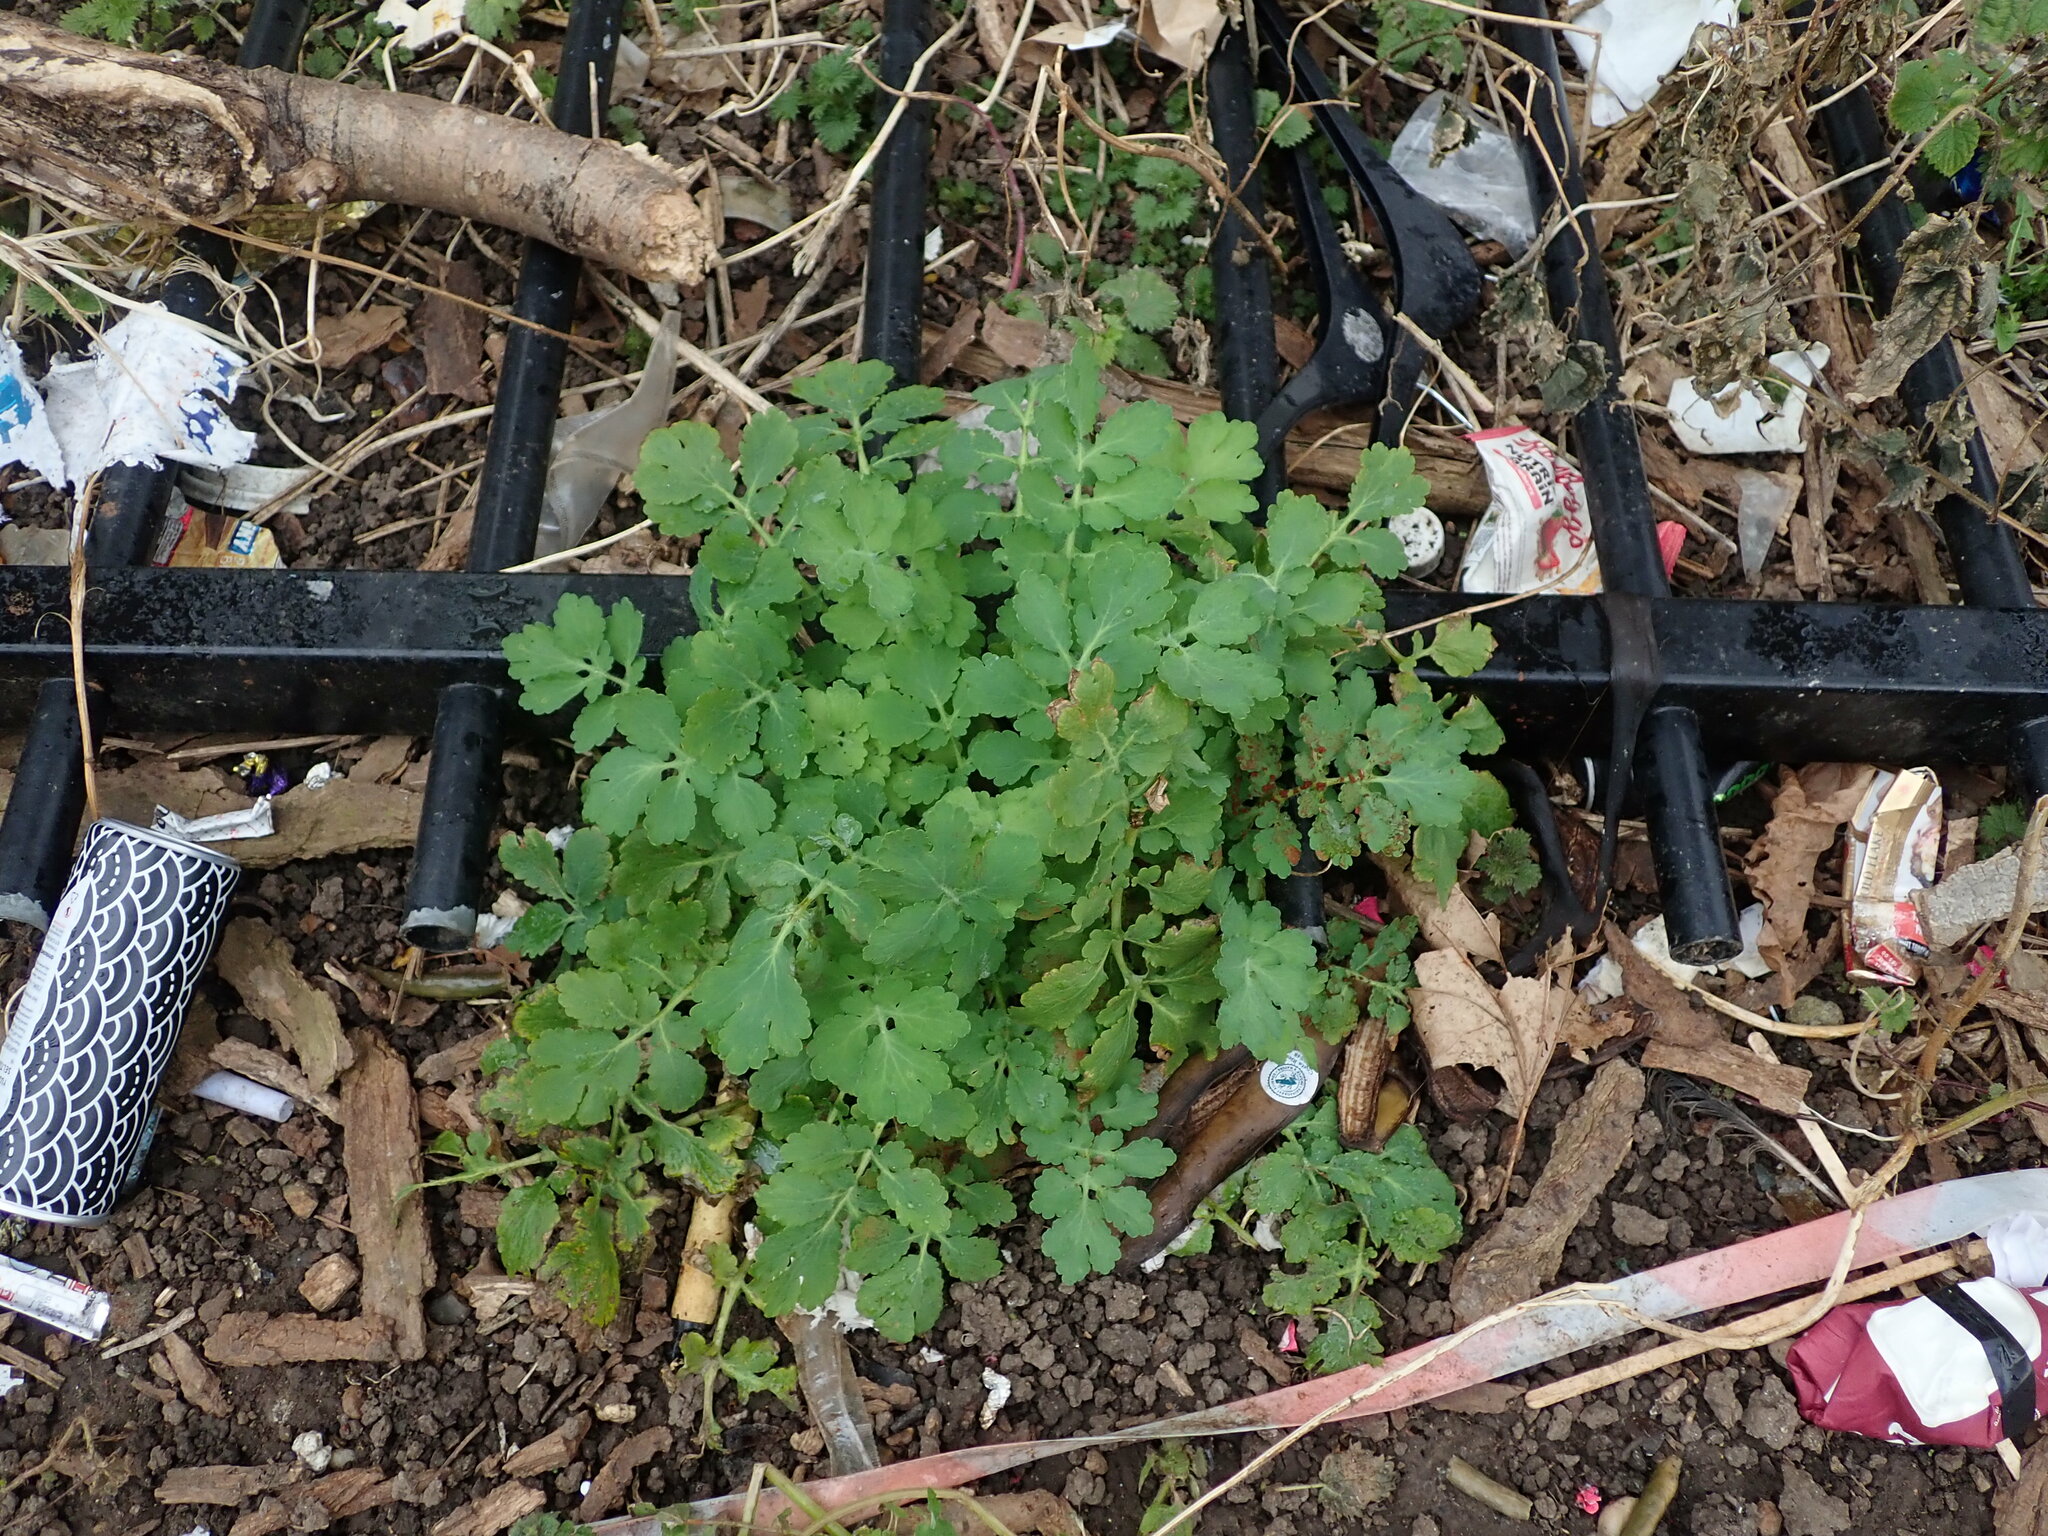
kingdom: Plantae
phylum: Tracheophyta
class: Magnoliopsida
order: Ranunculales
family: Papaveraceae
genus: Chelidonium
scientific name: Chelidonium majus
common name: Greater celandine
